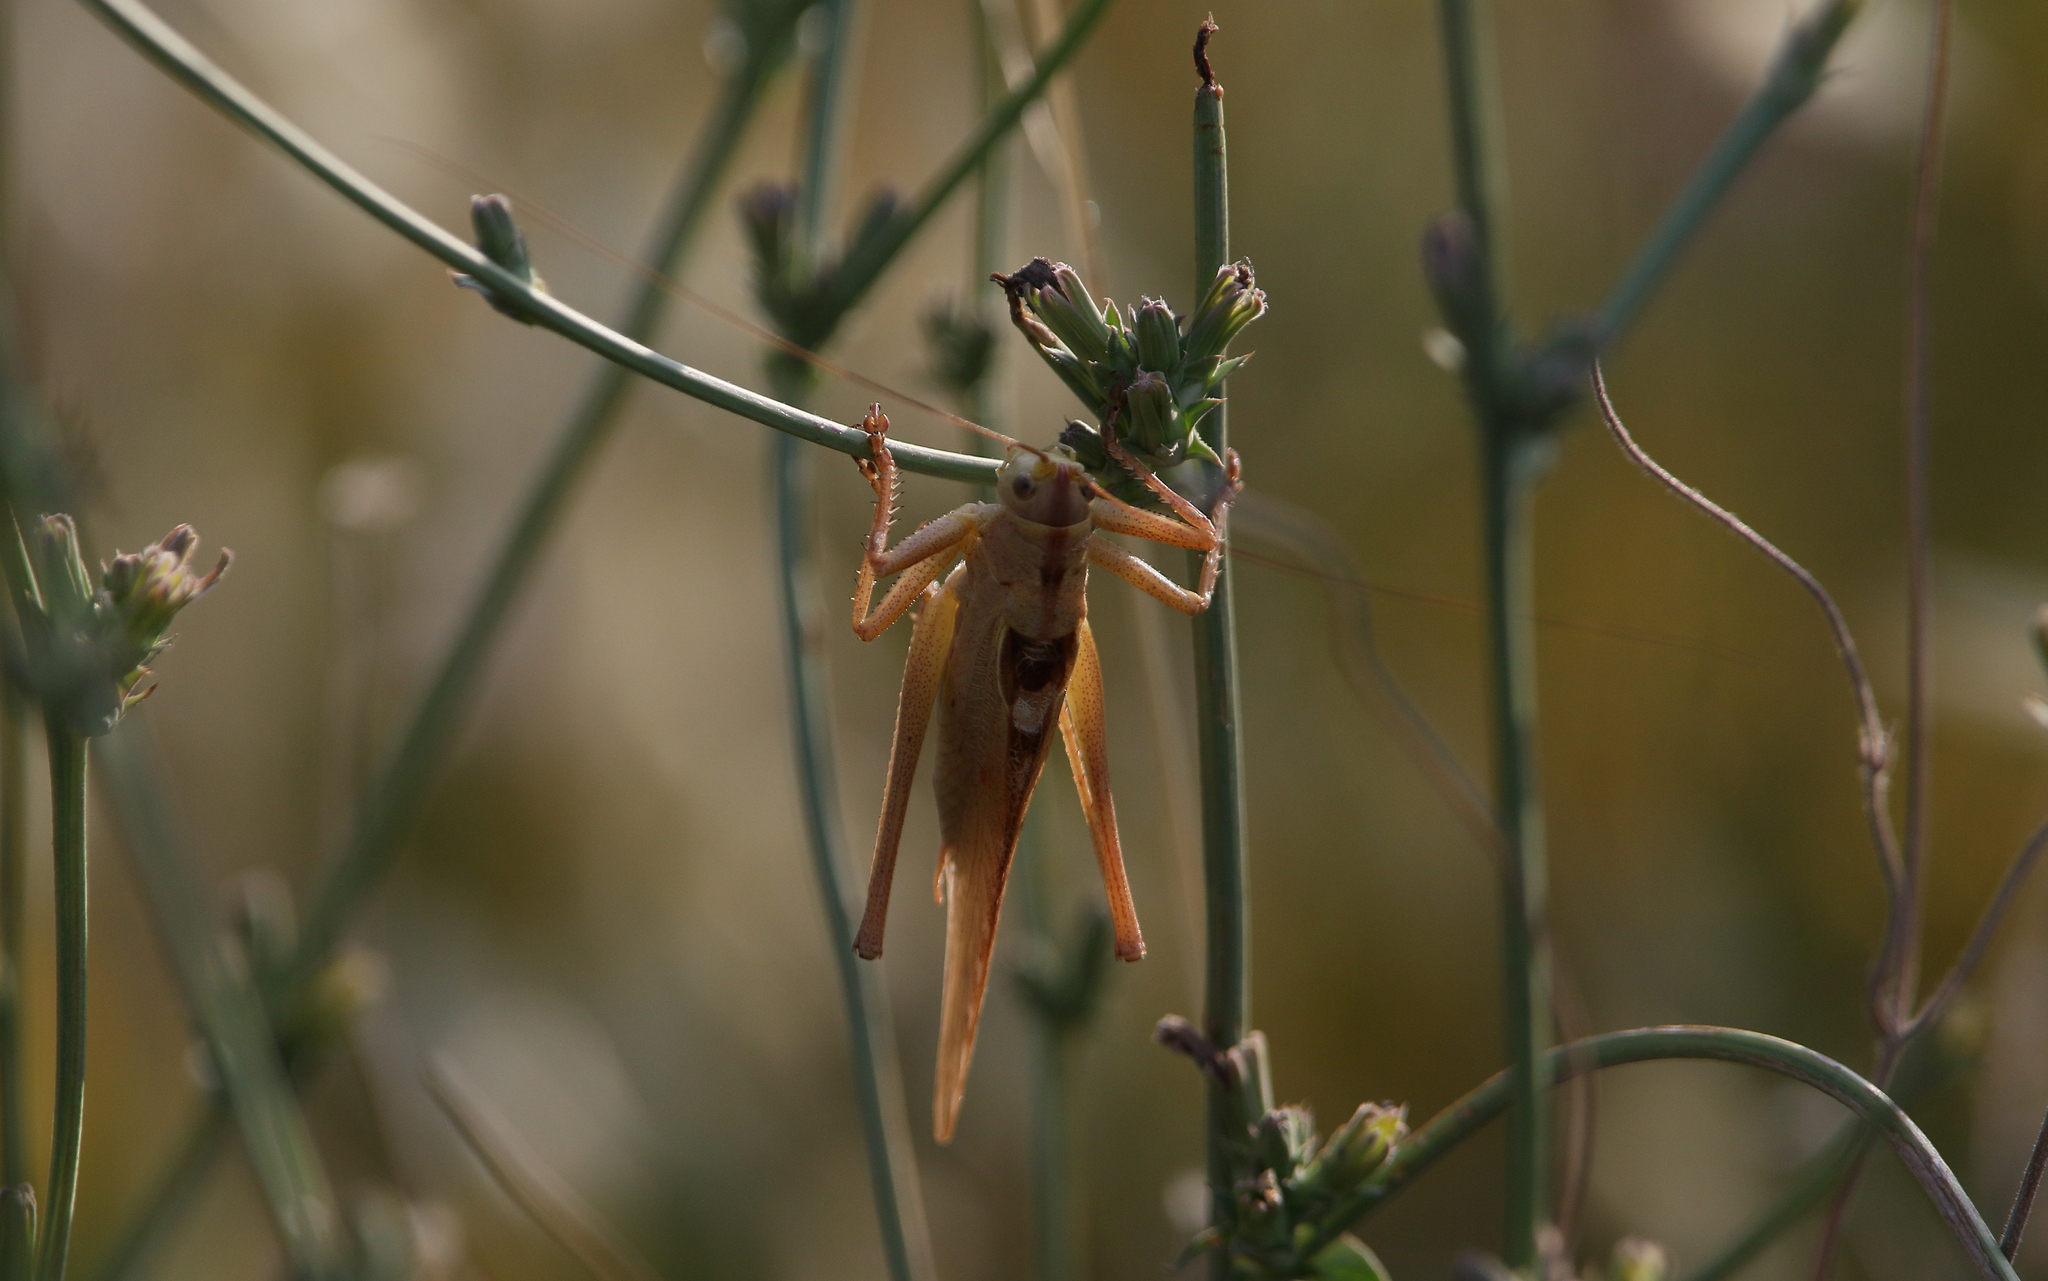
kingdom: Animalia
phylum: Arthropoda
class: Insecta
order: Orthoptera
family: Tettigoniidae
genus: Tettigonia
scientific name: Tettigonia viridissima
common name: Great green bush-cricket
